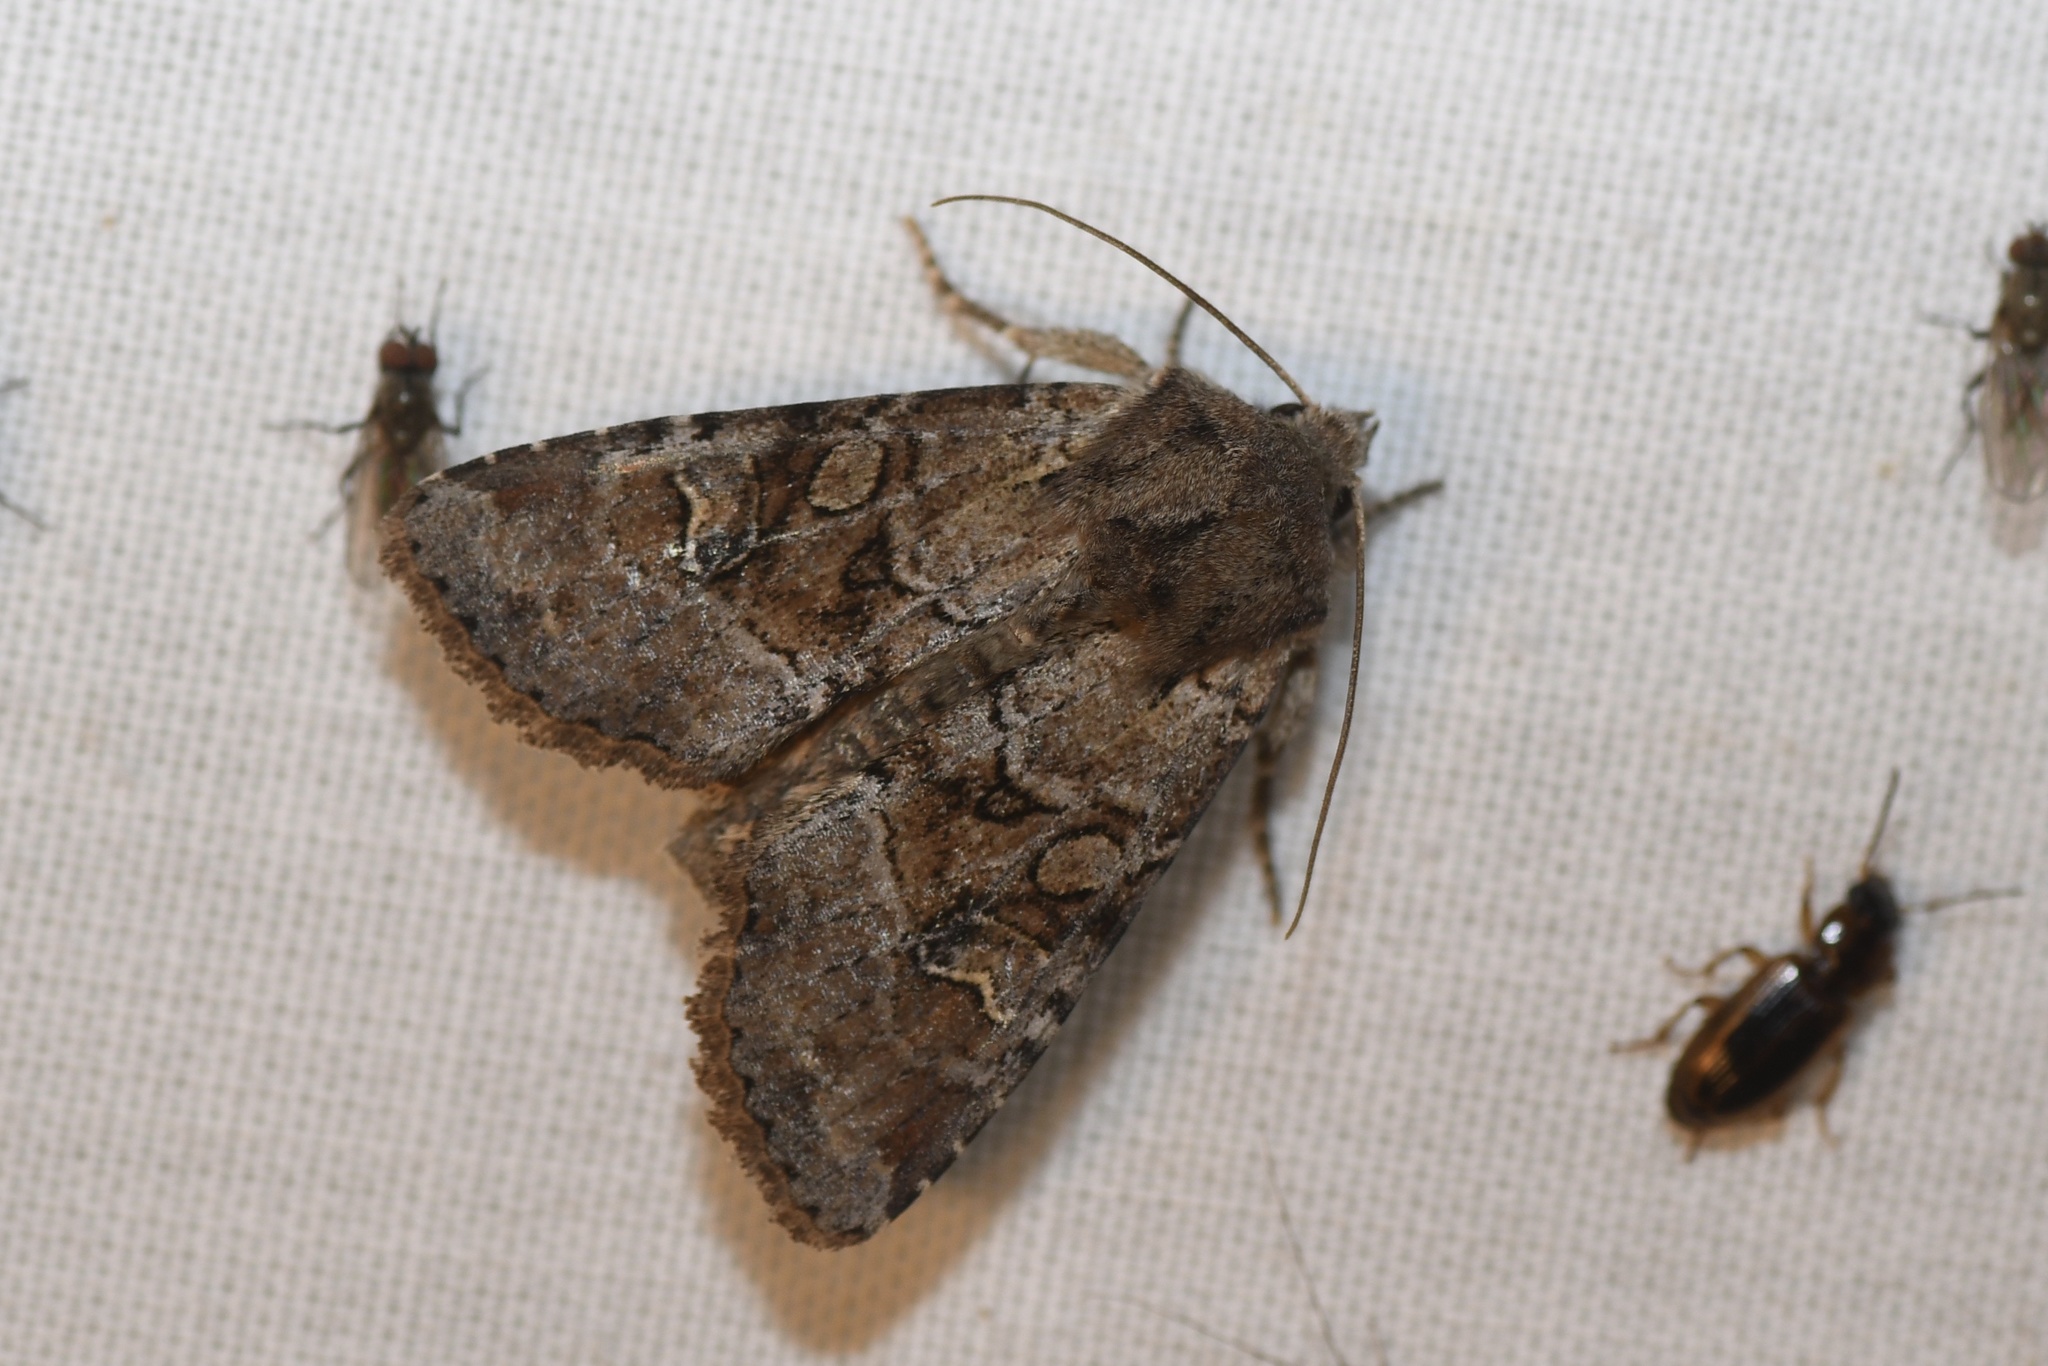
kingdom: Animalia
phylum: Arthropoda
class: Insecta
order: Lepidoptera
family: Noctuidae
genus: Apamea
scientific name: Apamea sordens
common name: Rustic shoulder-knot
